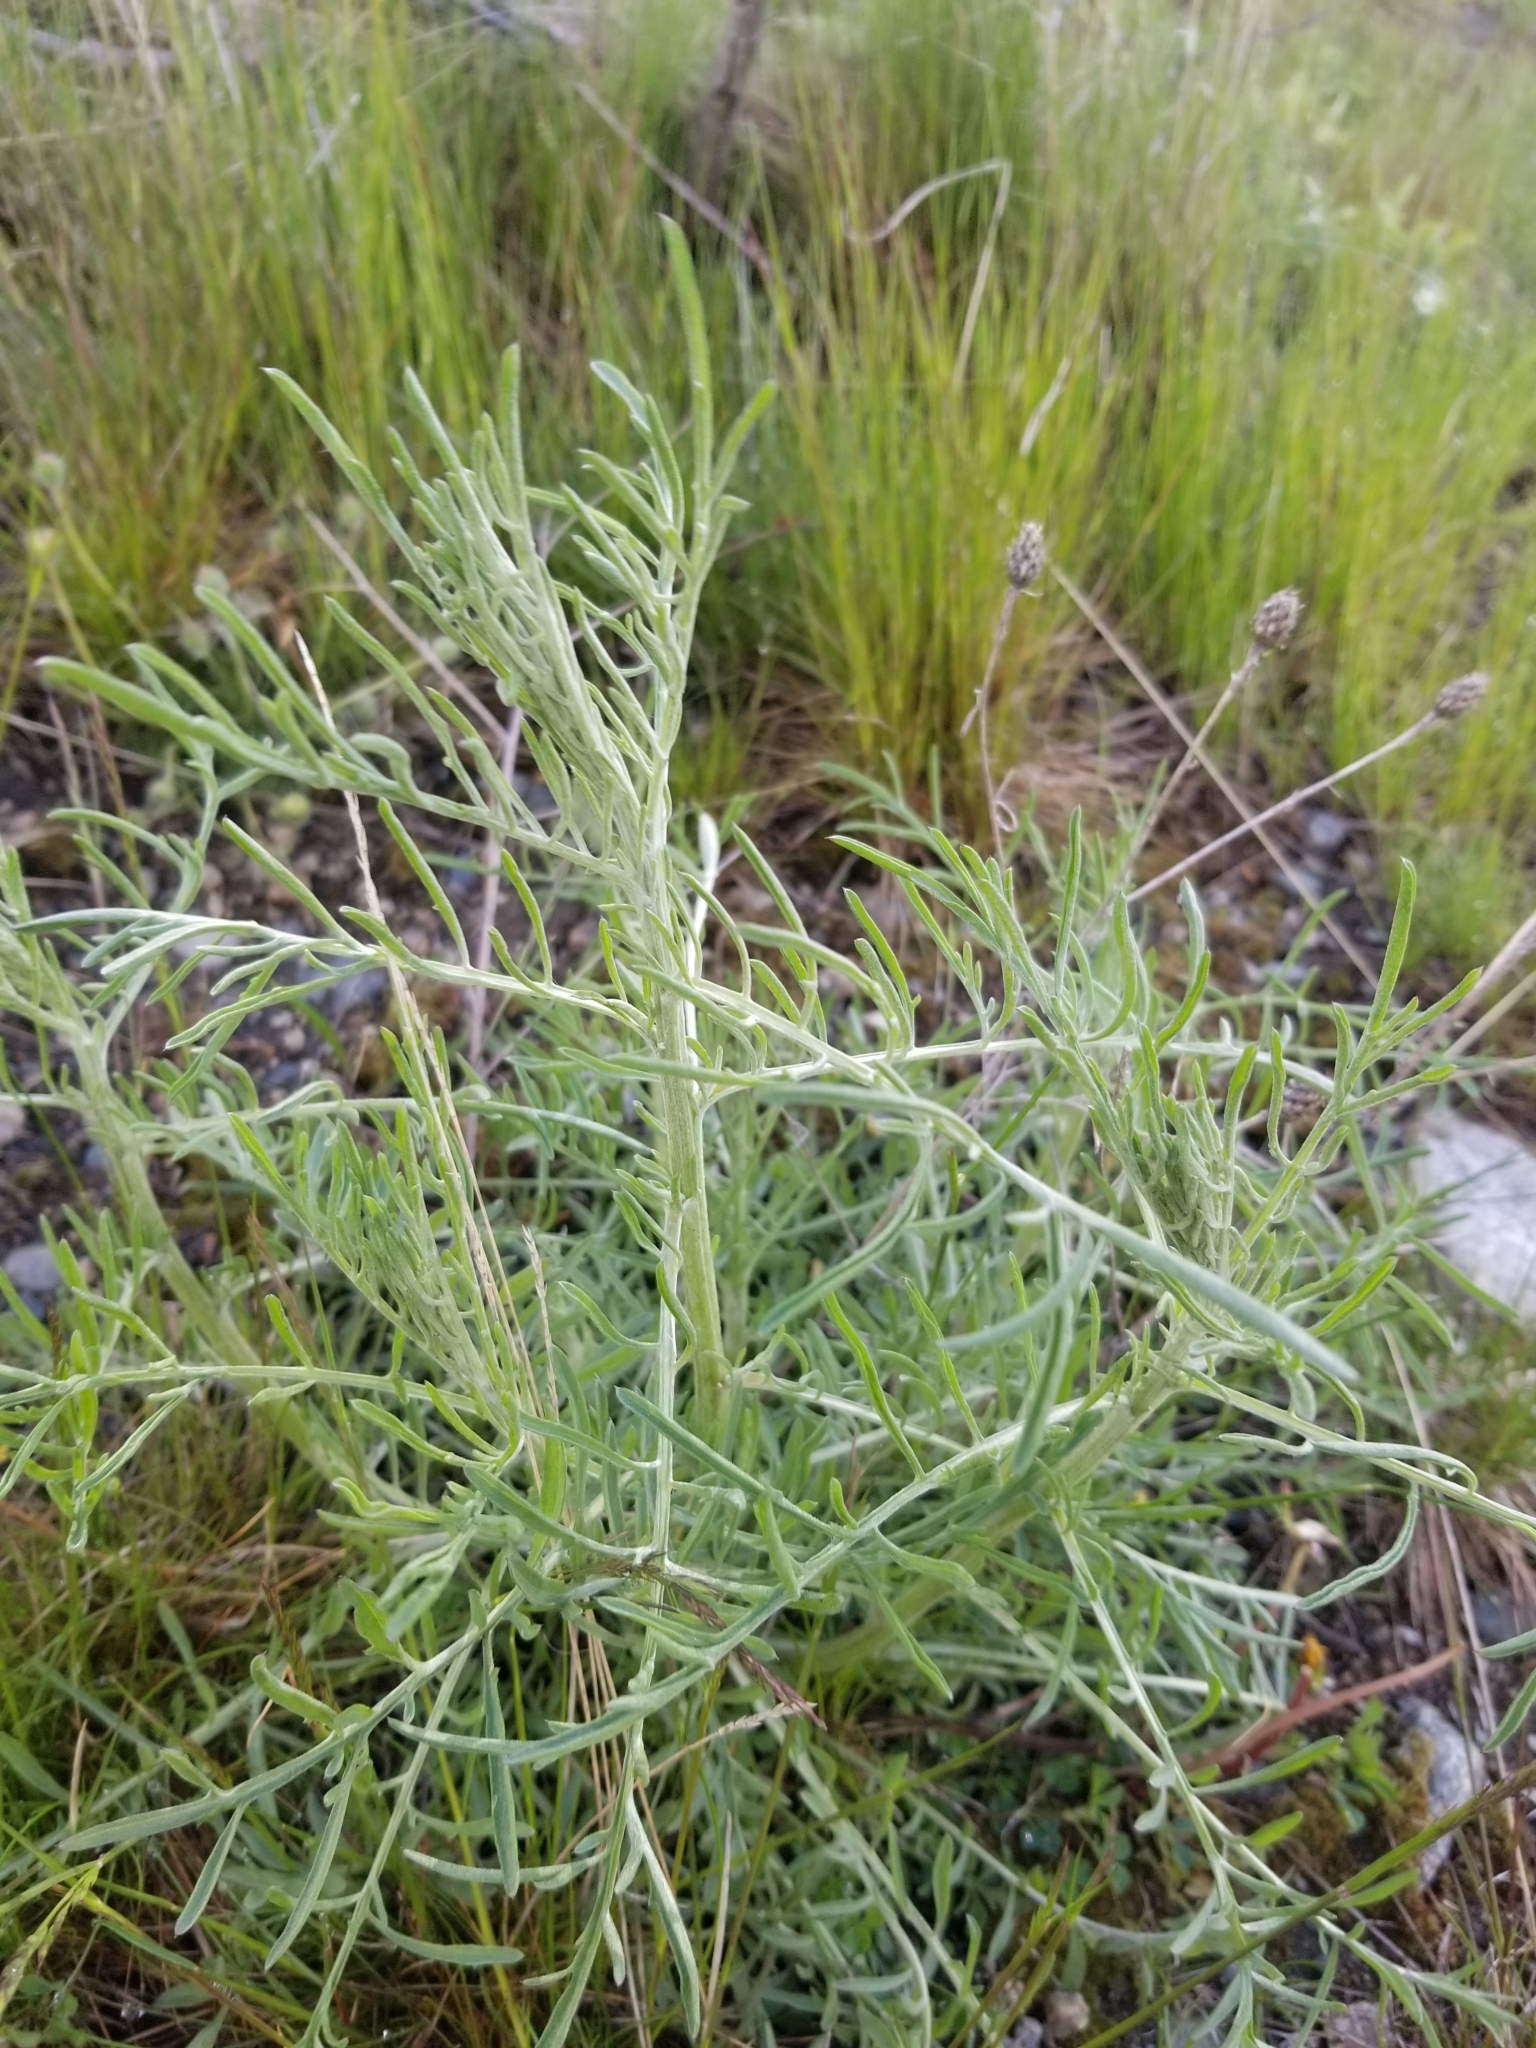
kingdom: Plantae
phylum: Tracheophyta
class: Magnoliopsida
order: Asterales
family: Asteraceae
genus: Centaurea
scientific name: Centaurea stoebe
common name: Spotted knapweed
